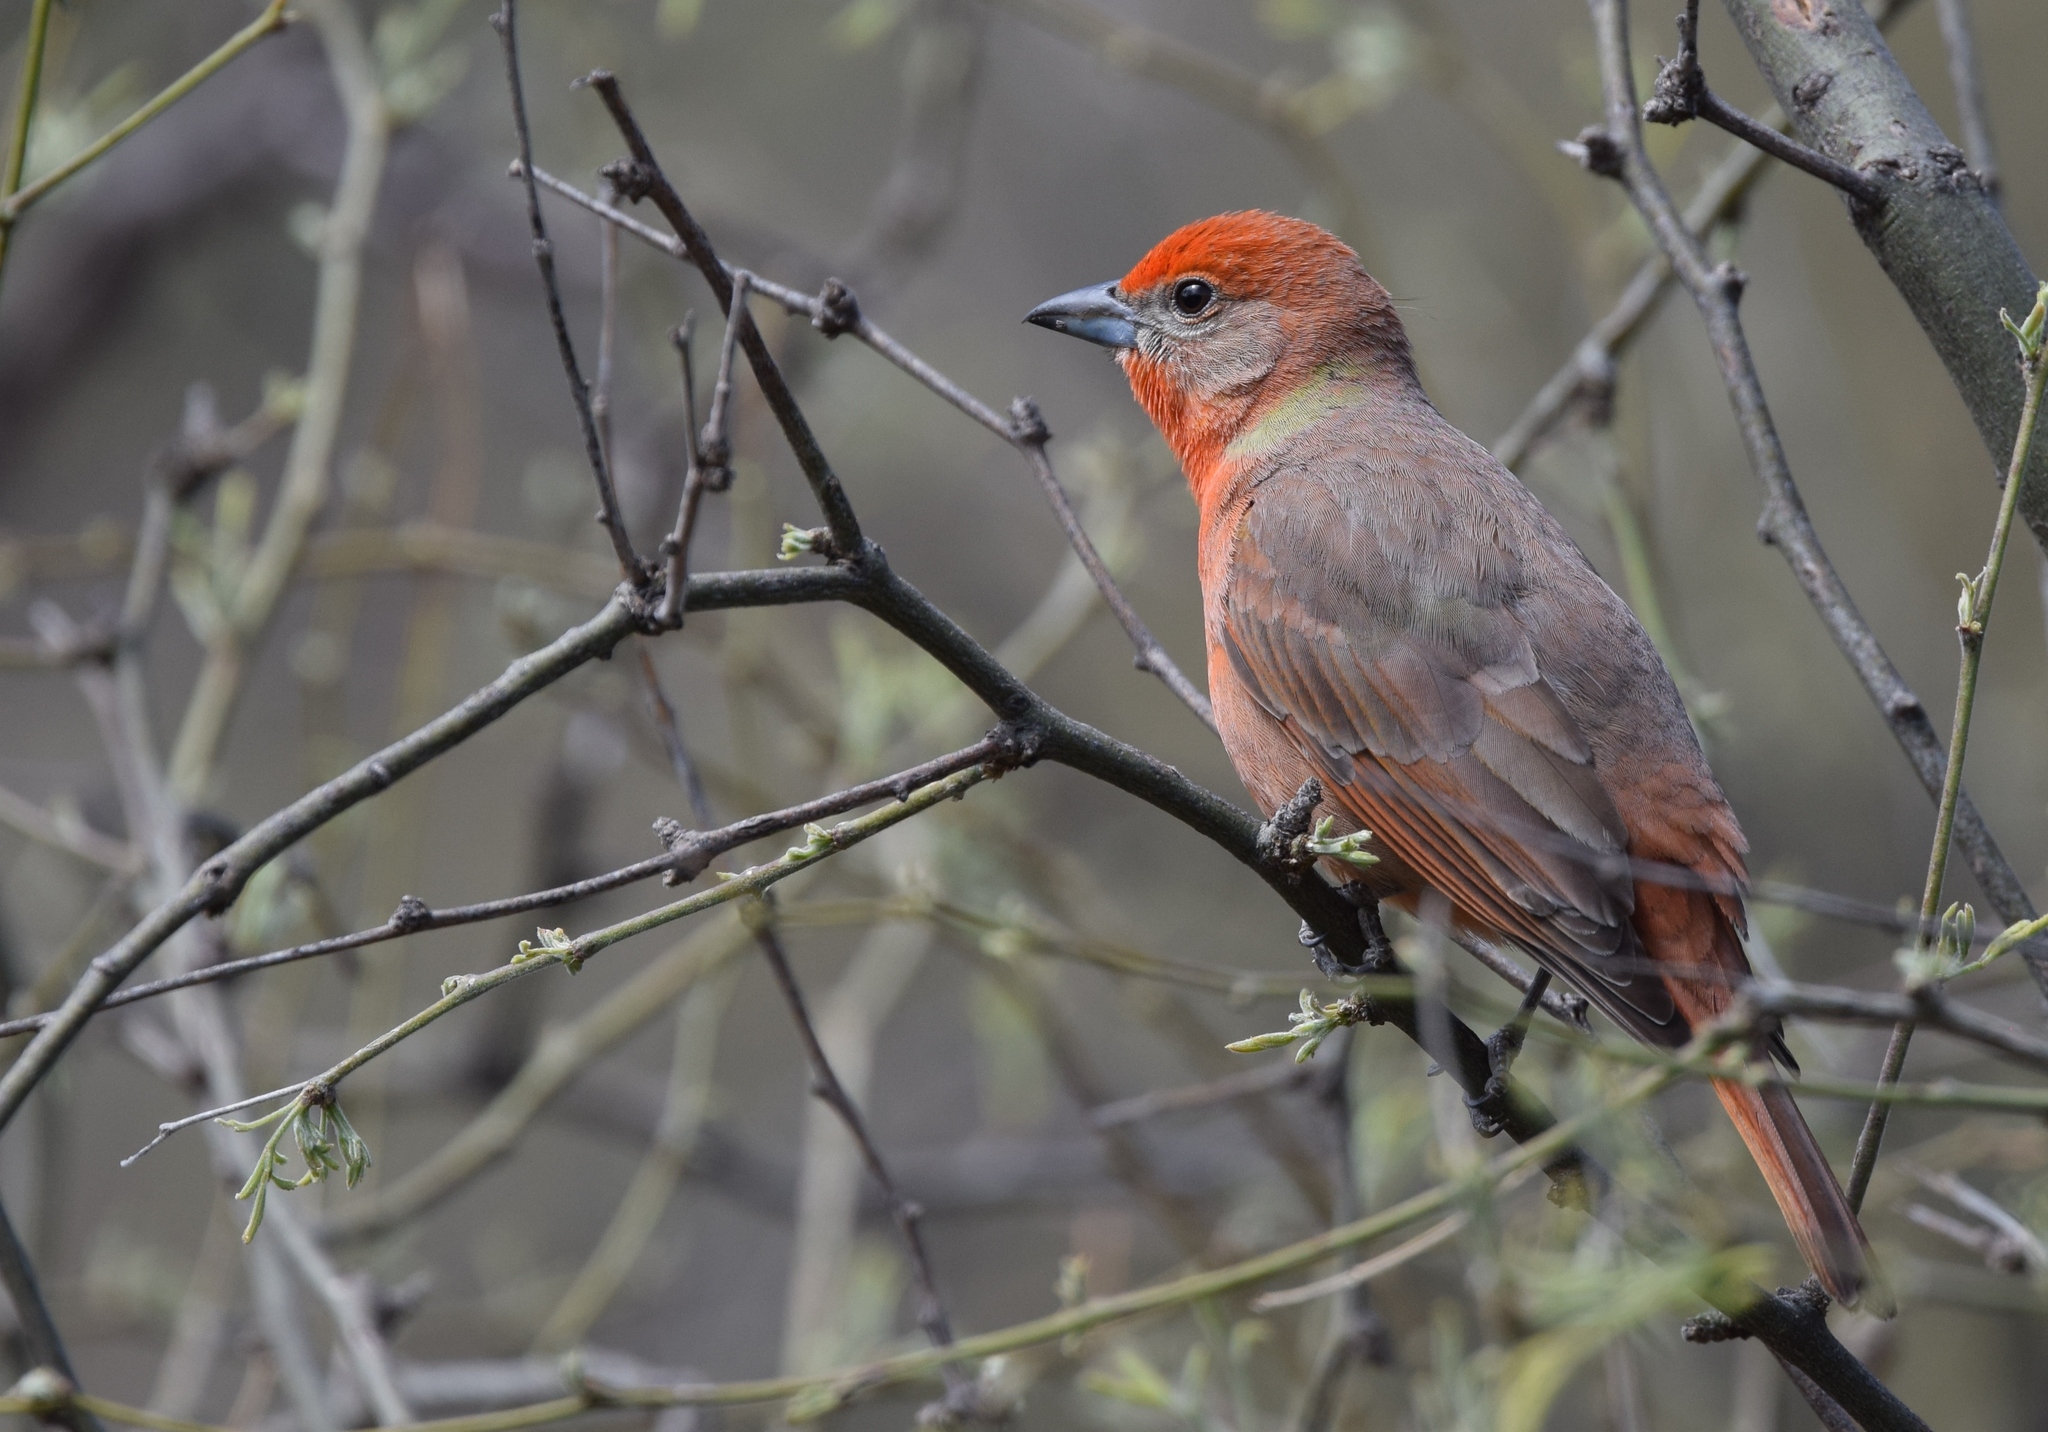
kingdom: Animalia
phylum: Chordata
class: Aves
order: Passeriformes
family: Cardinalidae
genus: Piranga
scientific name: Piranga flava
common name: Red tanager
